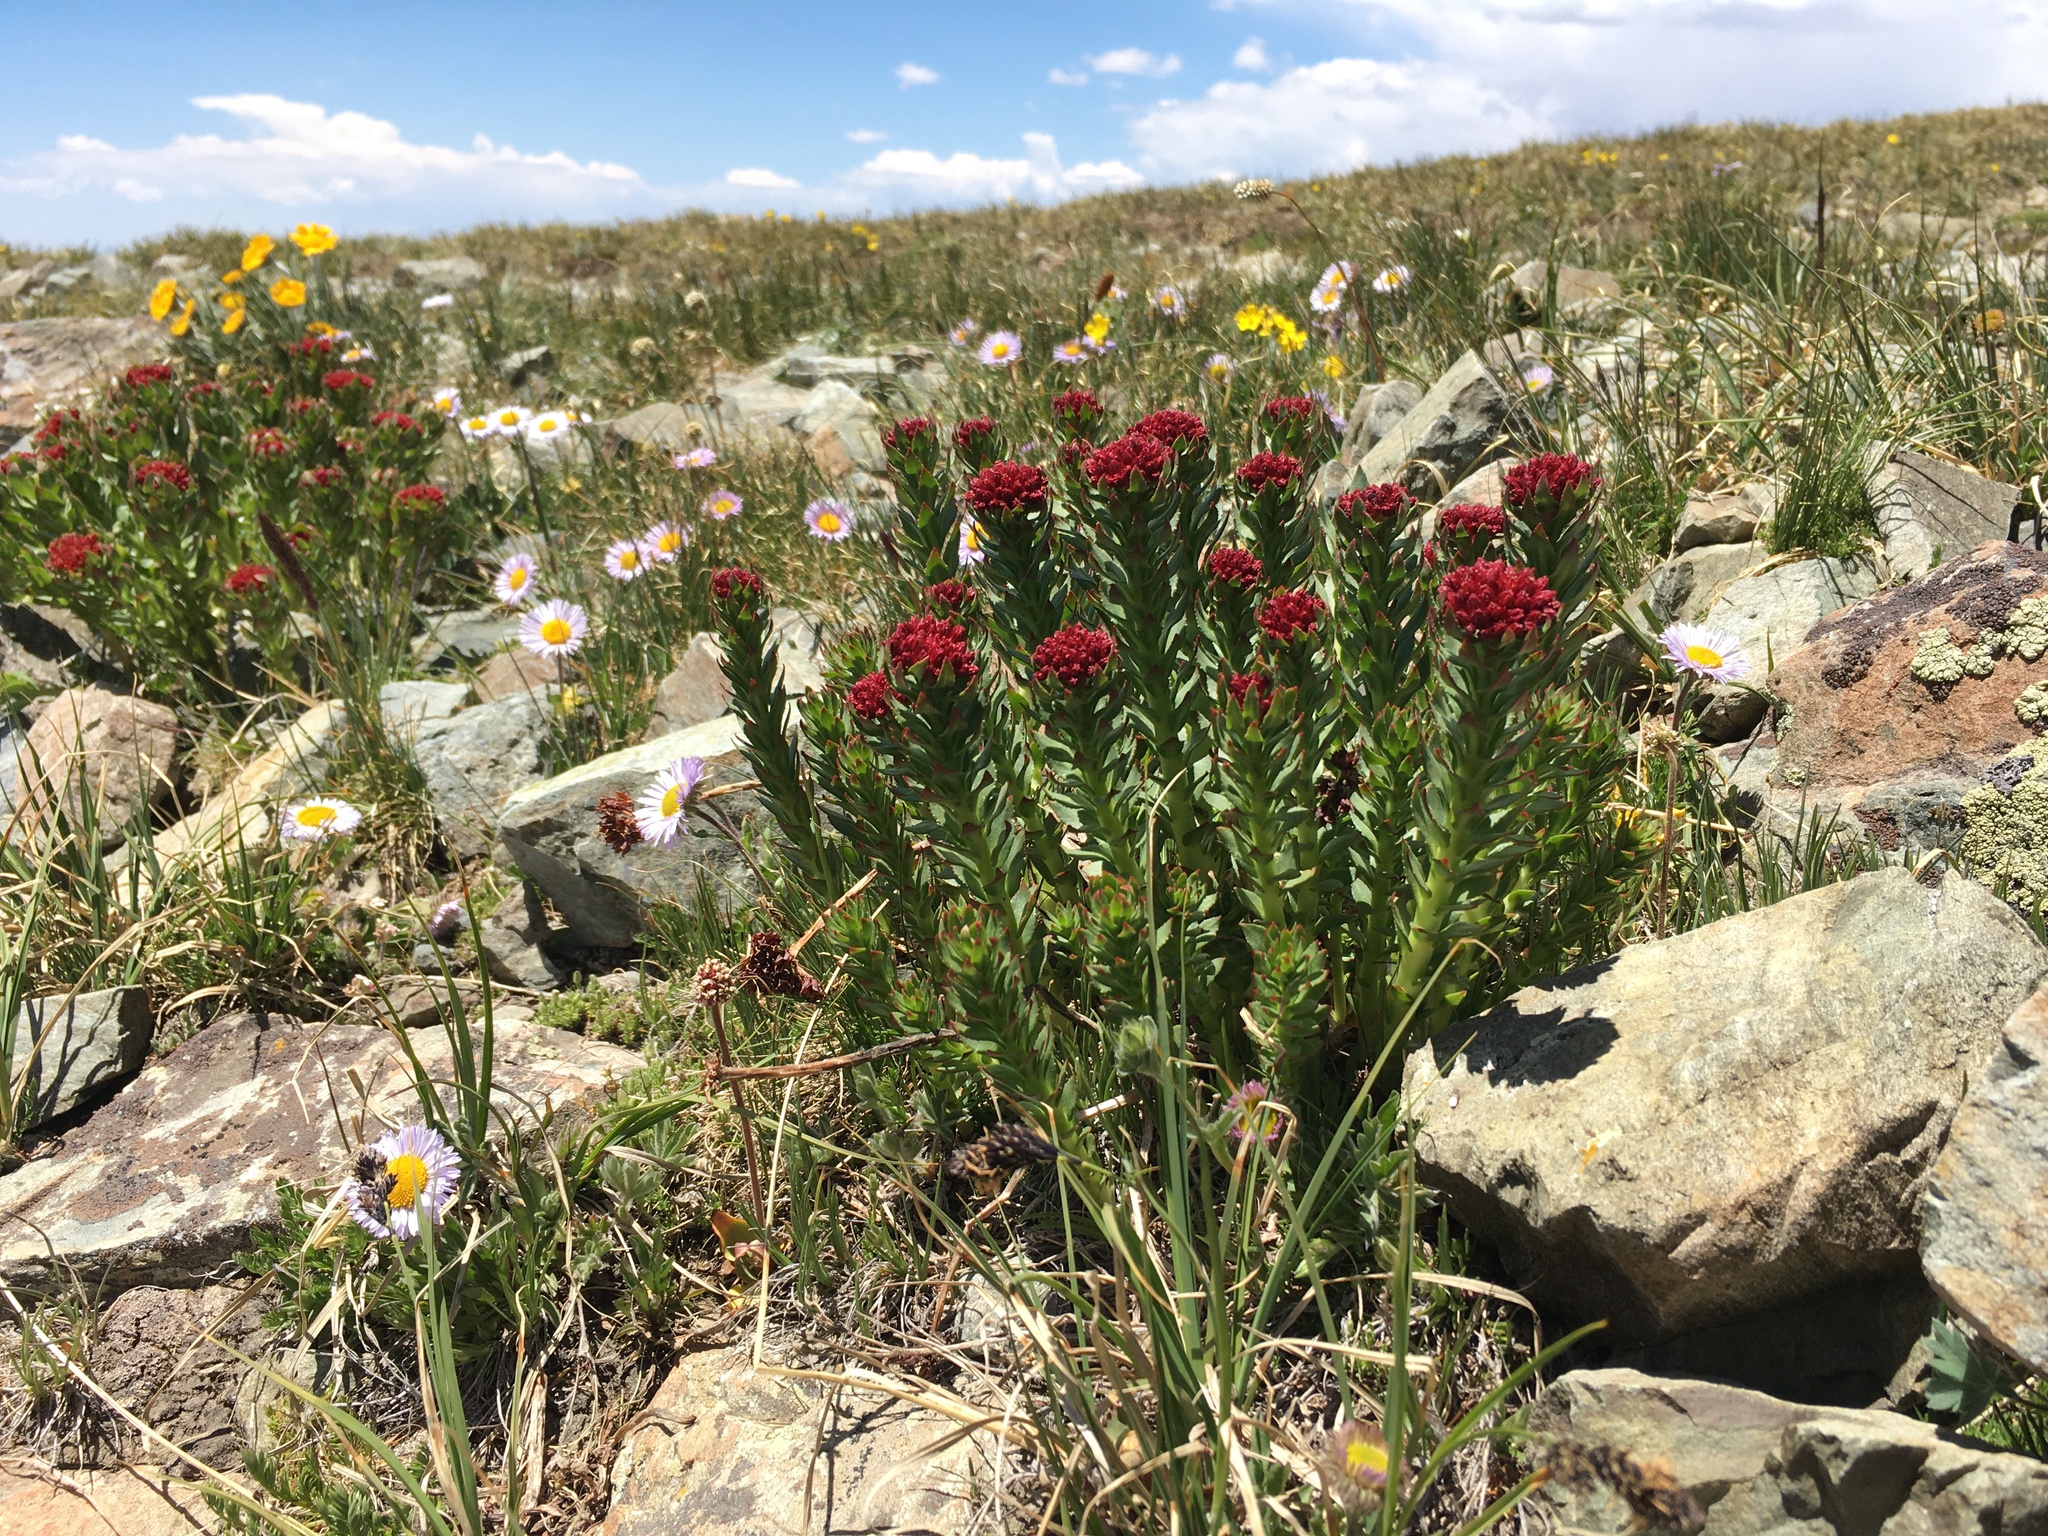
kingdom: Plantae
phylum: Tracheophyta
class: Magnoliopsida
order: Saxifragales
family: Crassulaceae
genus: Rhodiola
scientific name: Rhodiola integrifolia
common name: Western roseroot
